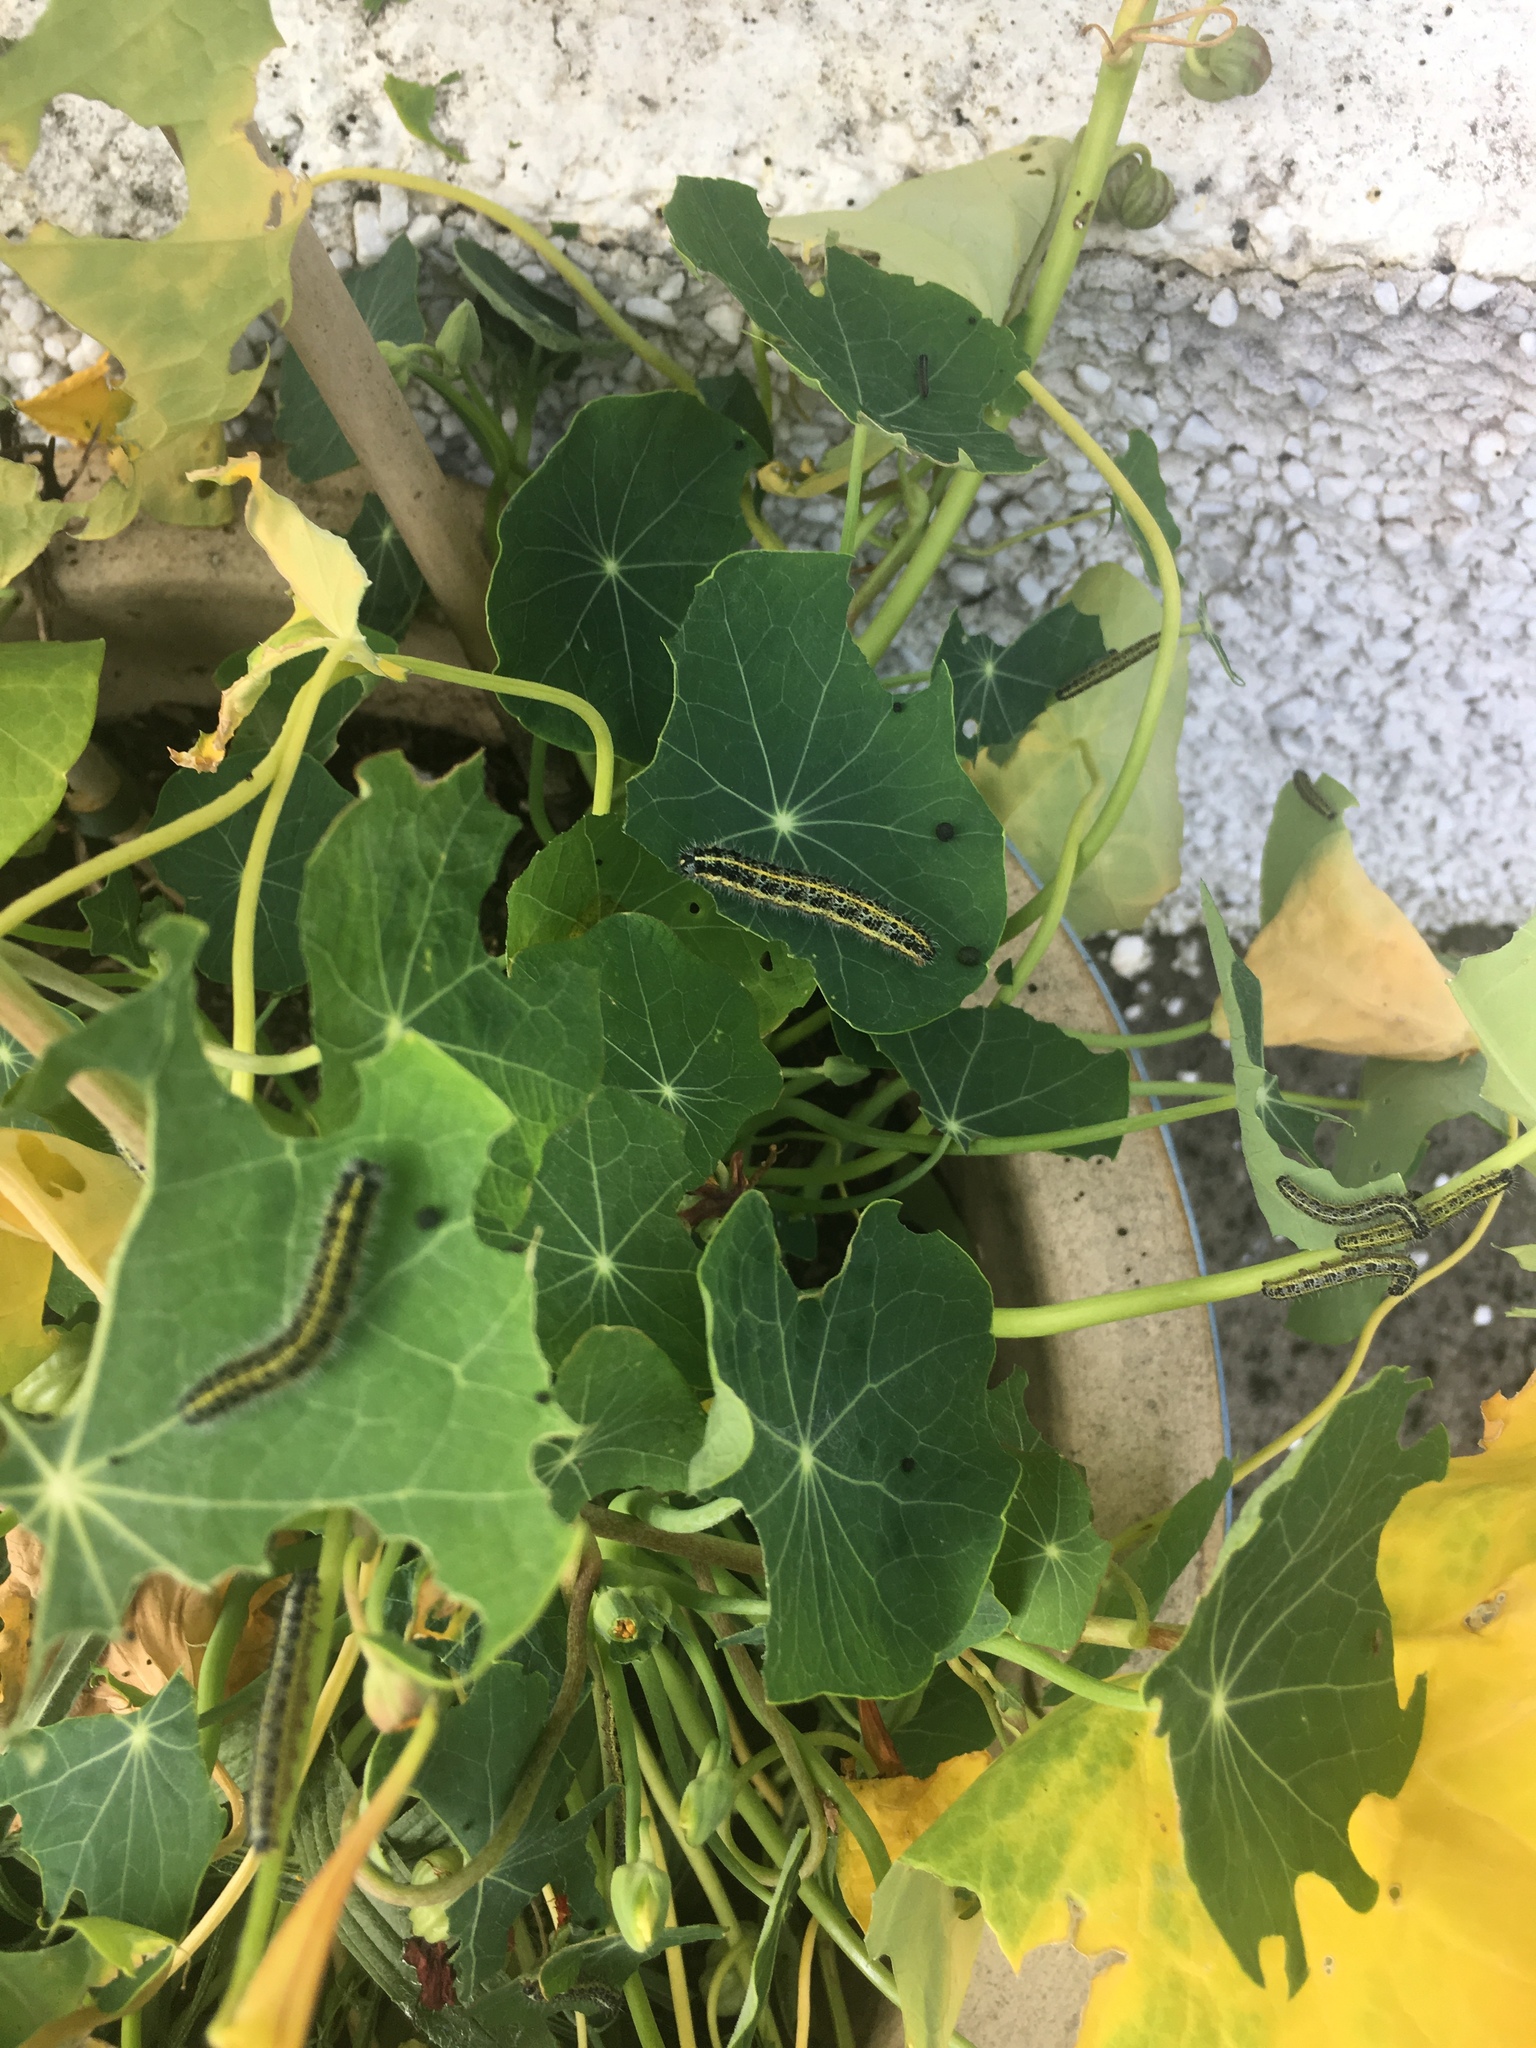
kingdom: Animalia
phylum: Arthropoda
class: Insecta
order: Lepidoptera
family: Pieridae
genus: Pieris
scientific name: Pieris brassicae
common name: Large white
